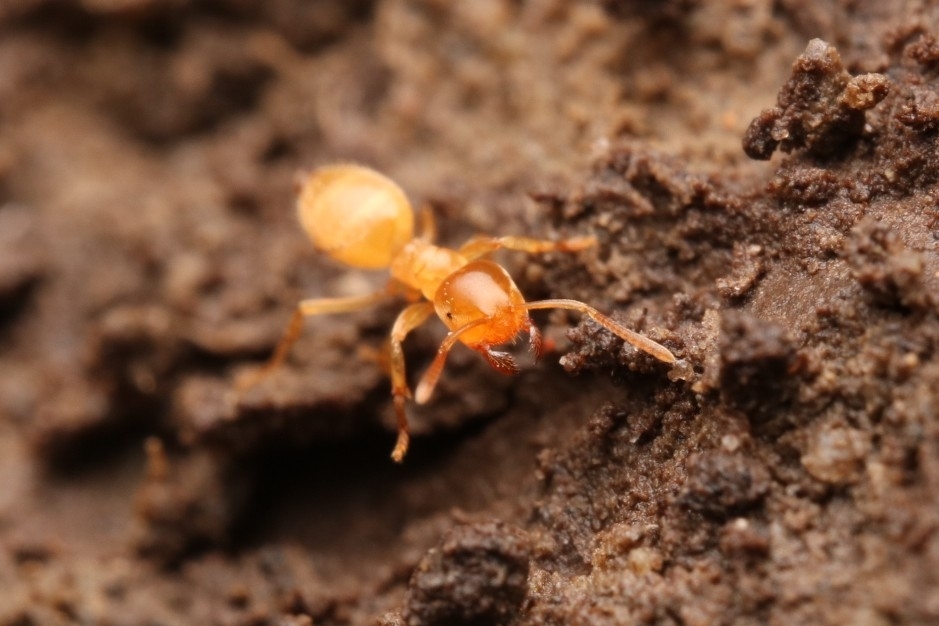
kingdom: Animalia
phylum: Arthropoda
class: Insecta
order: Hymenoptera
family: Formicidae
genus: Cautolasius
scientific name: Cautolasius
